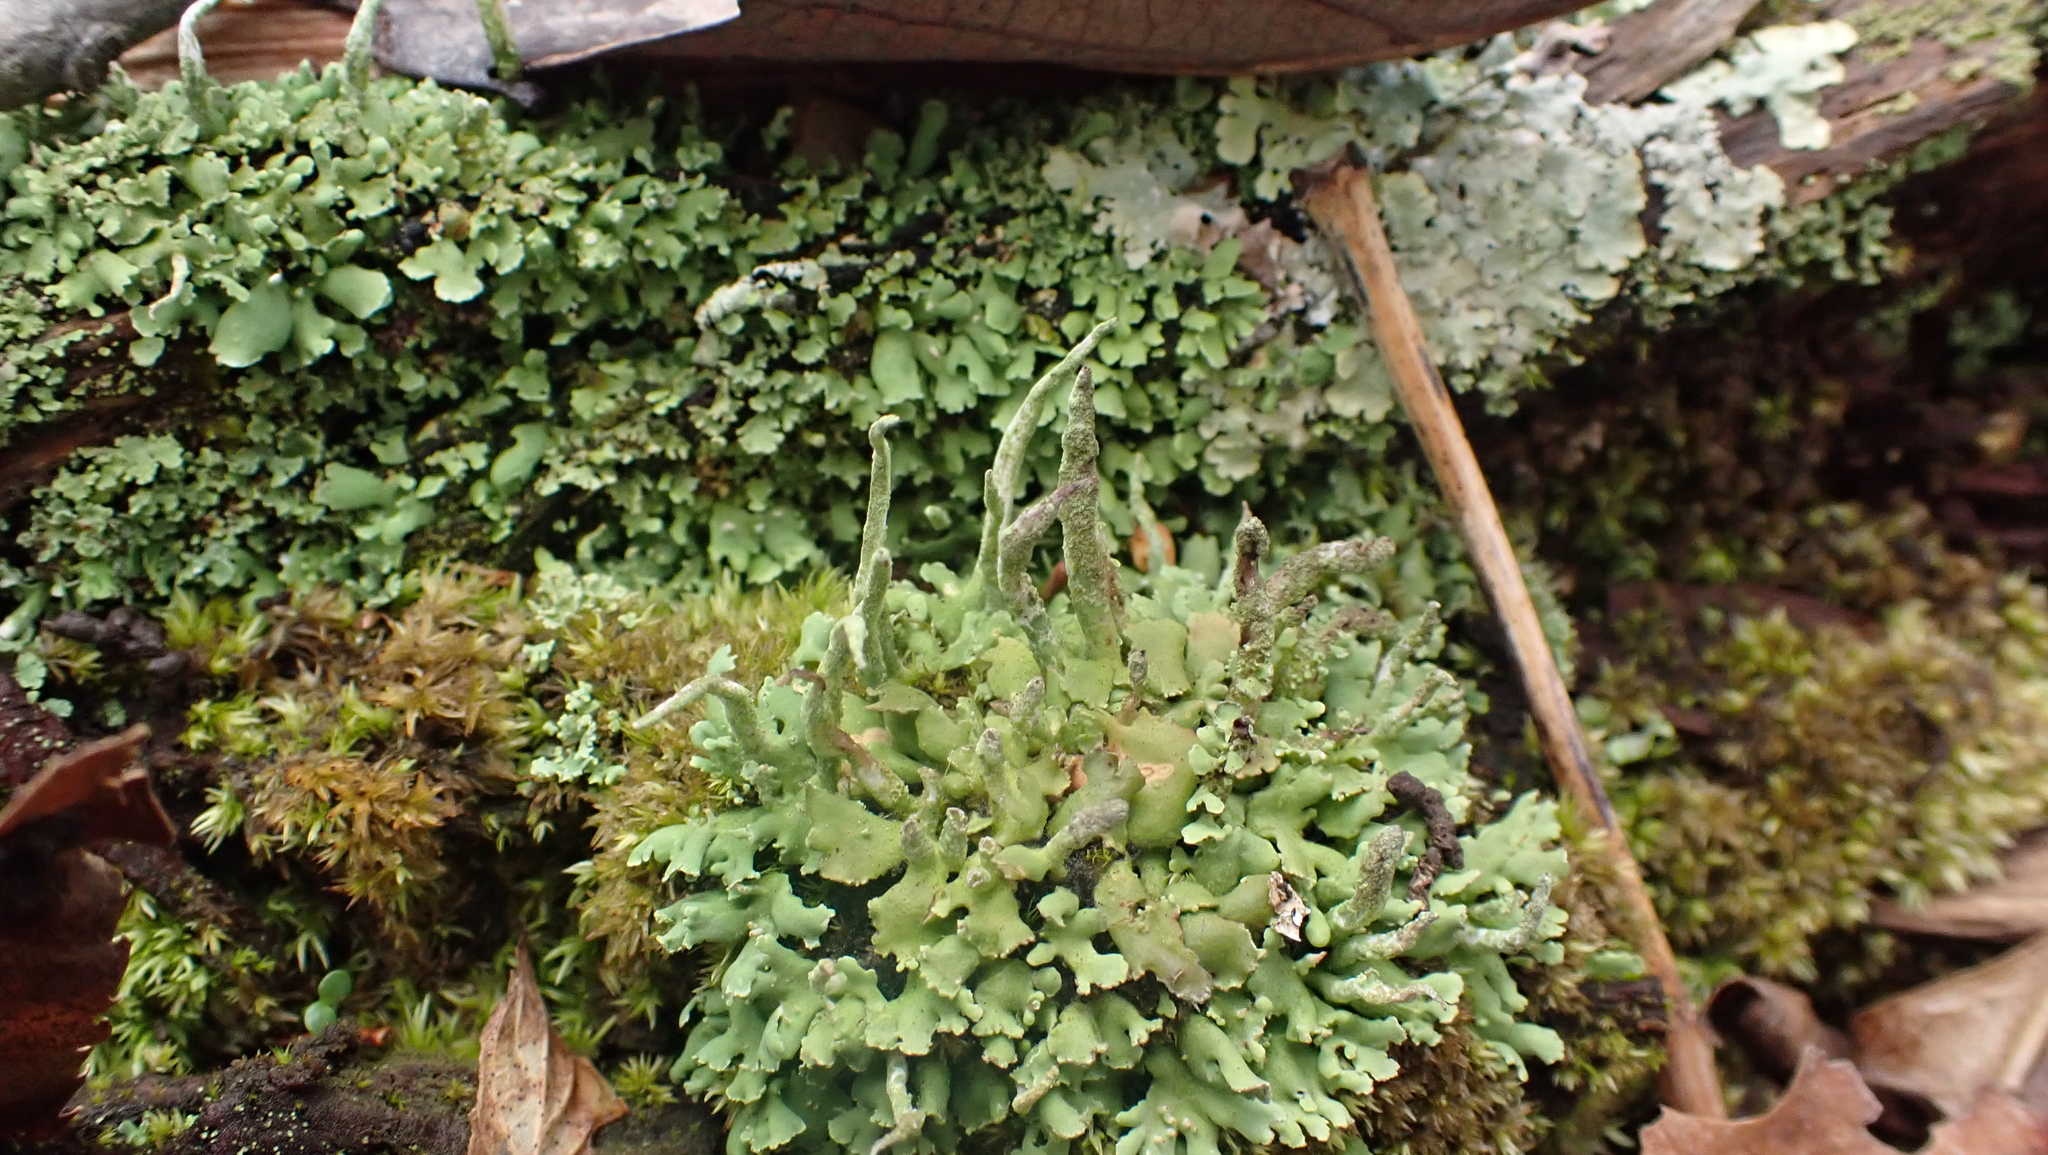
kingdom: Fungi
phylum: Ascomycota
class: Lecanoromycetes
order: Lecanorales
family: Cladoniaceae
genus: Cladonia
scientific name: Cladonia coniocraea
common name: Common powderhorn
